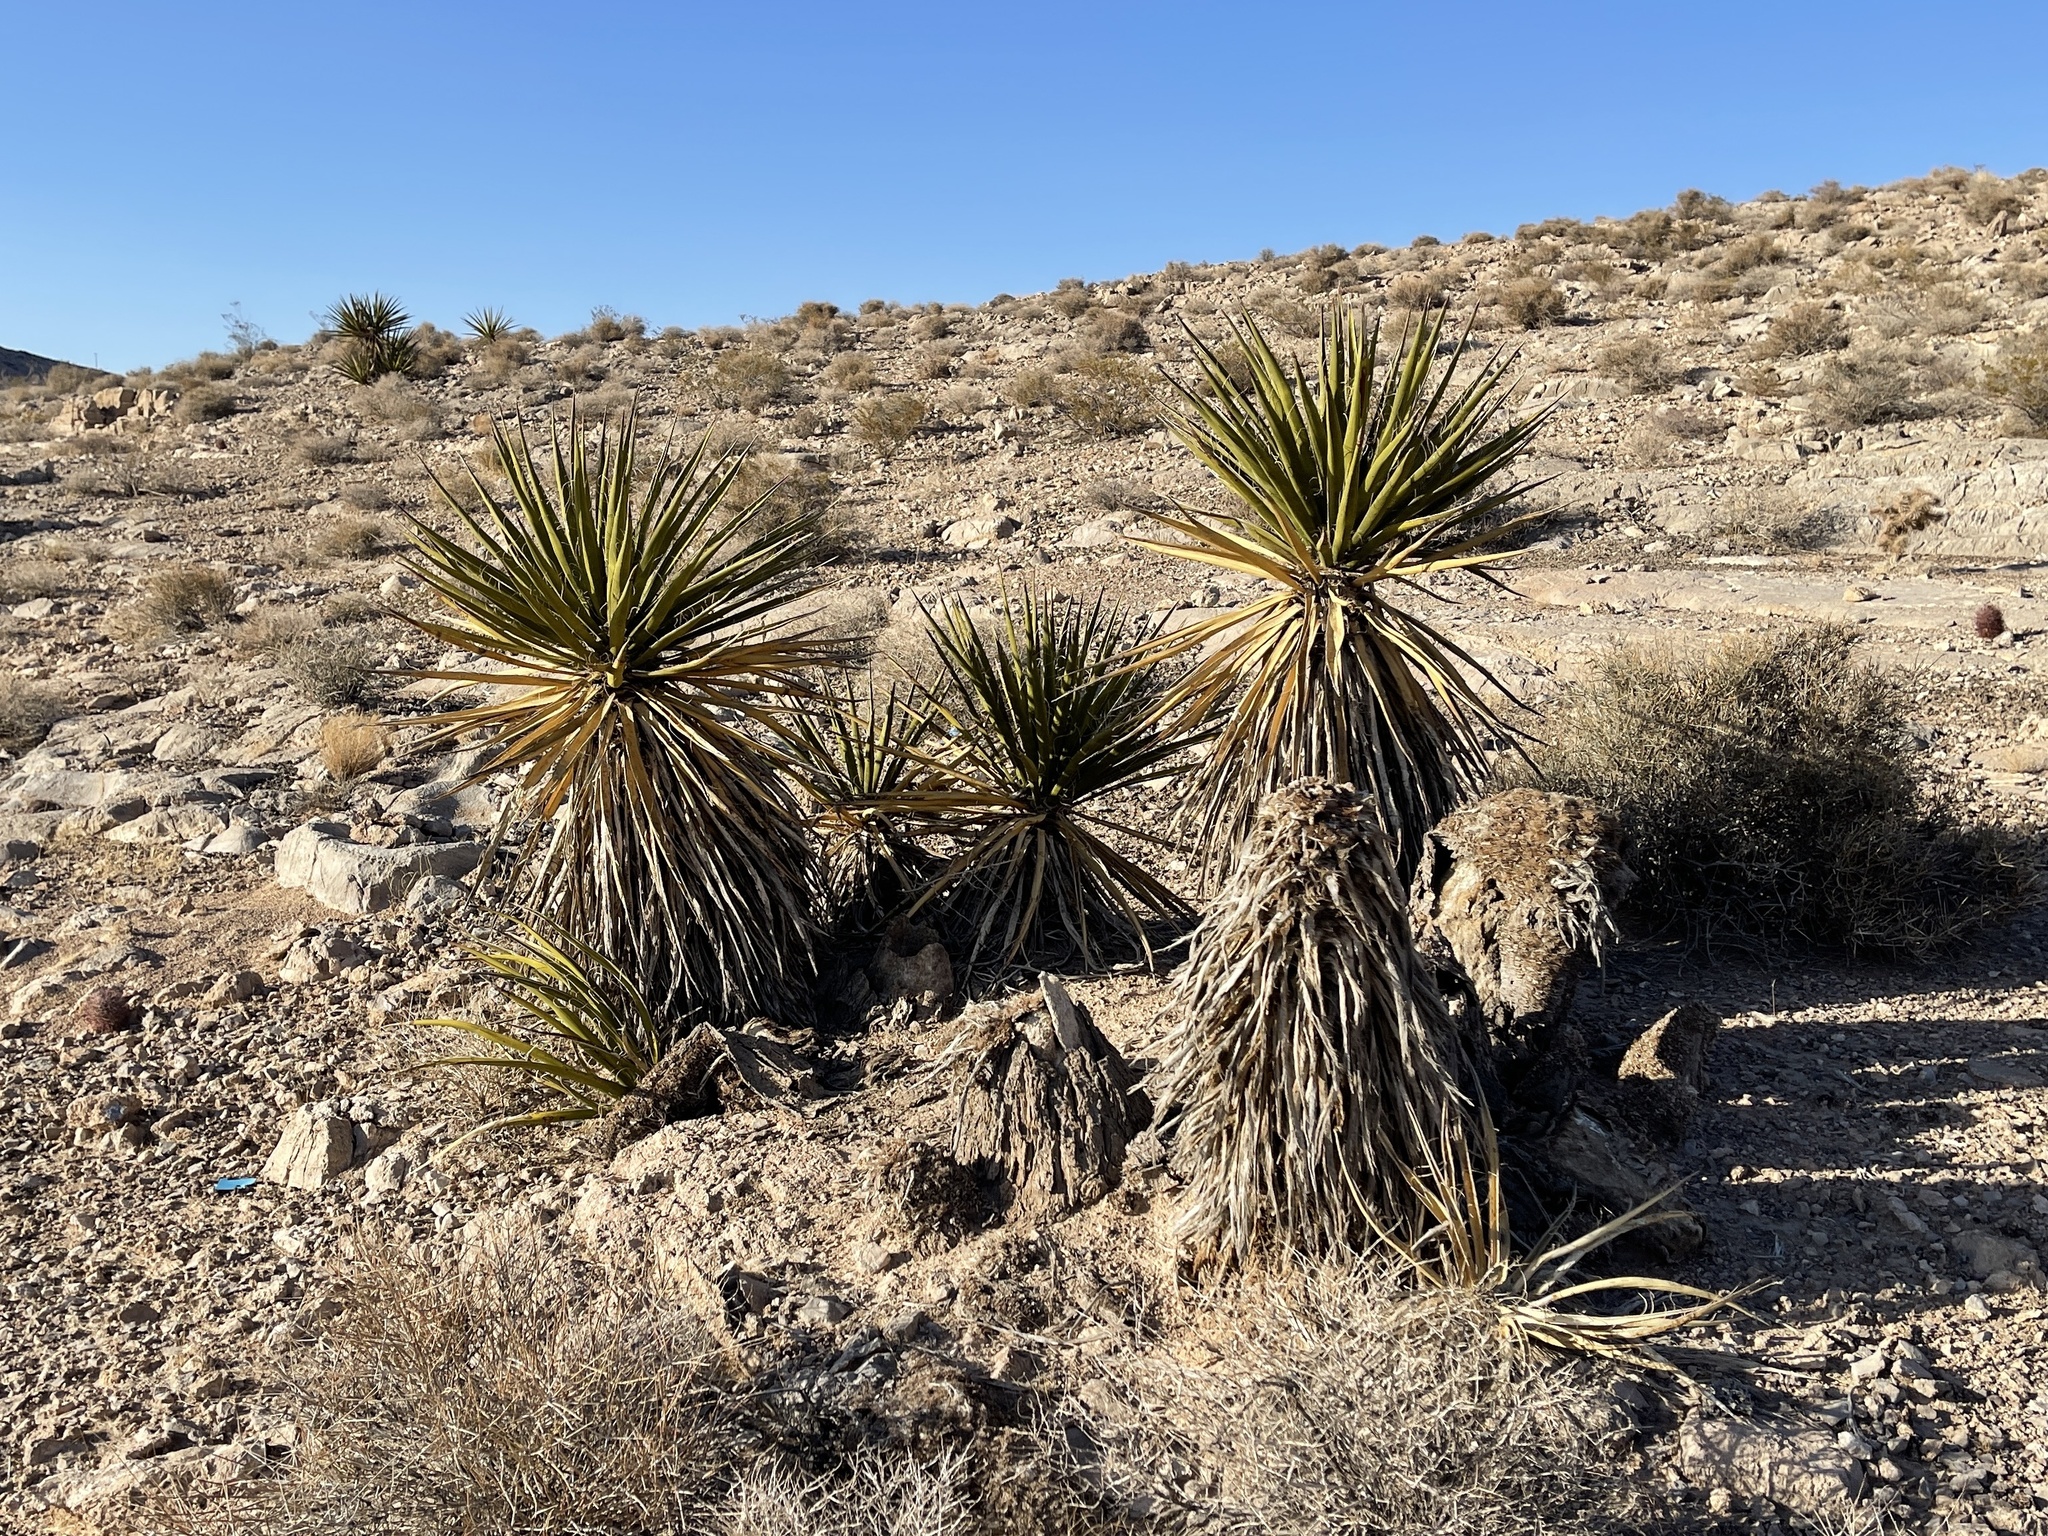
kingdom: Plantae
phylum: Tracheophyta
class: Liliopsida
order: Asparagales
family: Asparagaceae
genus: Yucca
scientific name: Yucca schidigera
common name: Mojave yucca
